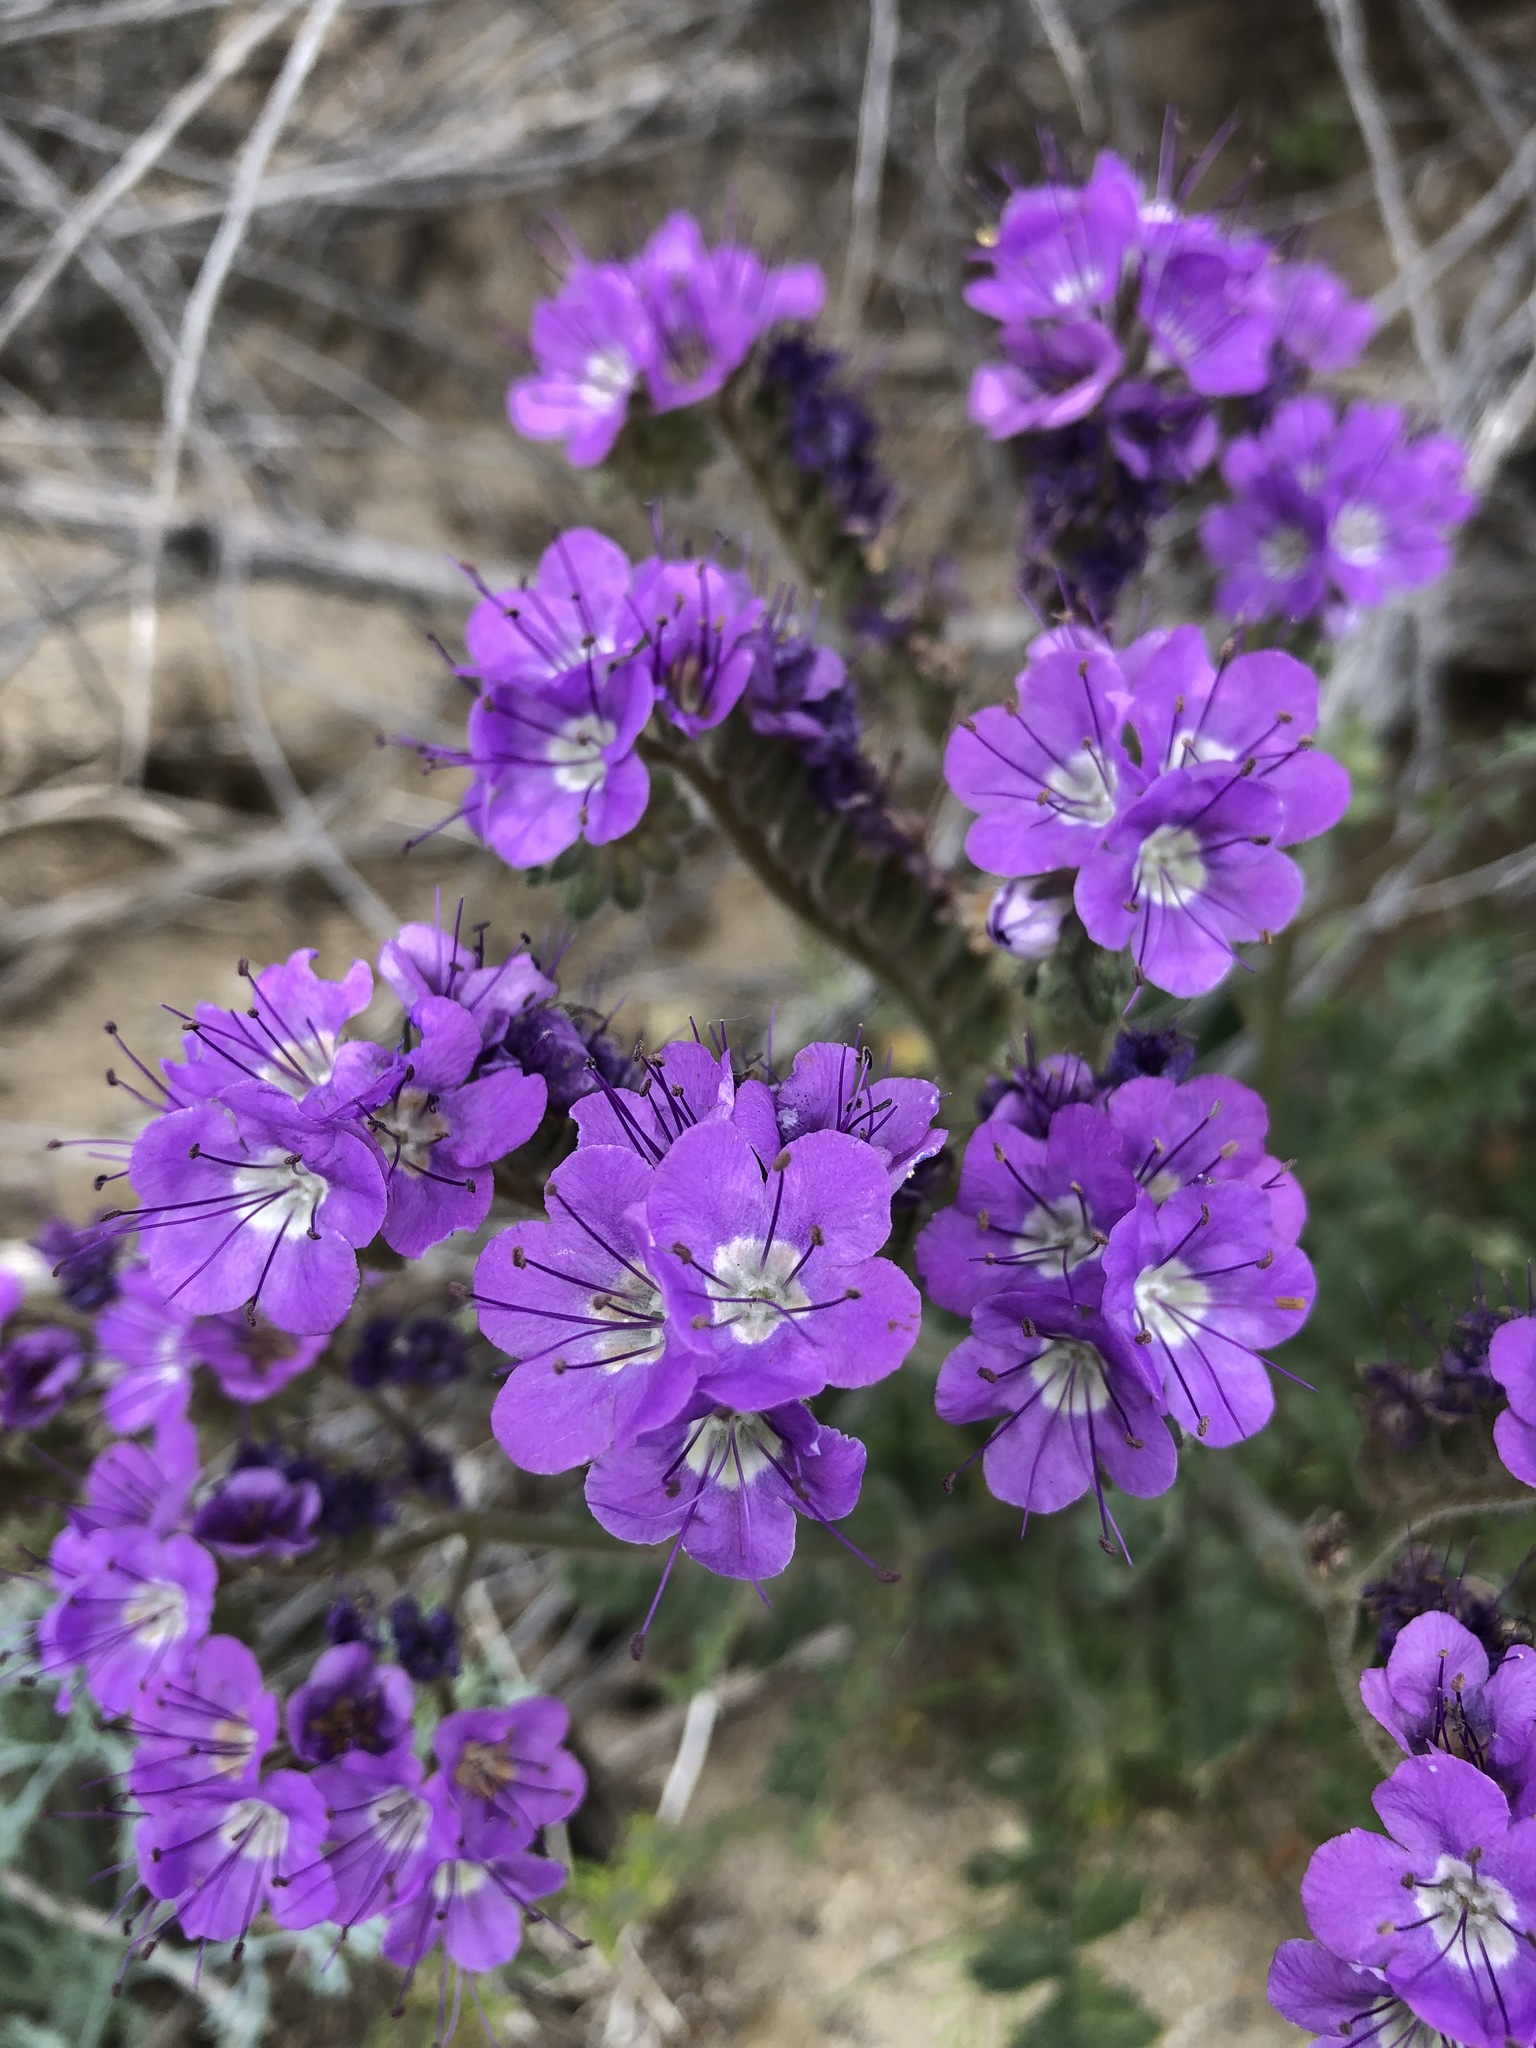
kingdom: Plantae
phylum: Tracheophyta
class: Magnoliopsida
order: Boraginales
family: Hydrophyllaceae
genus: Phacelia
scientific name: Phacelia crenulata
